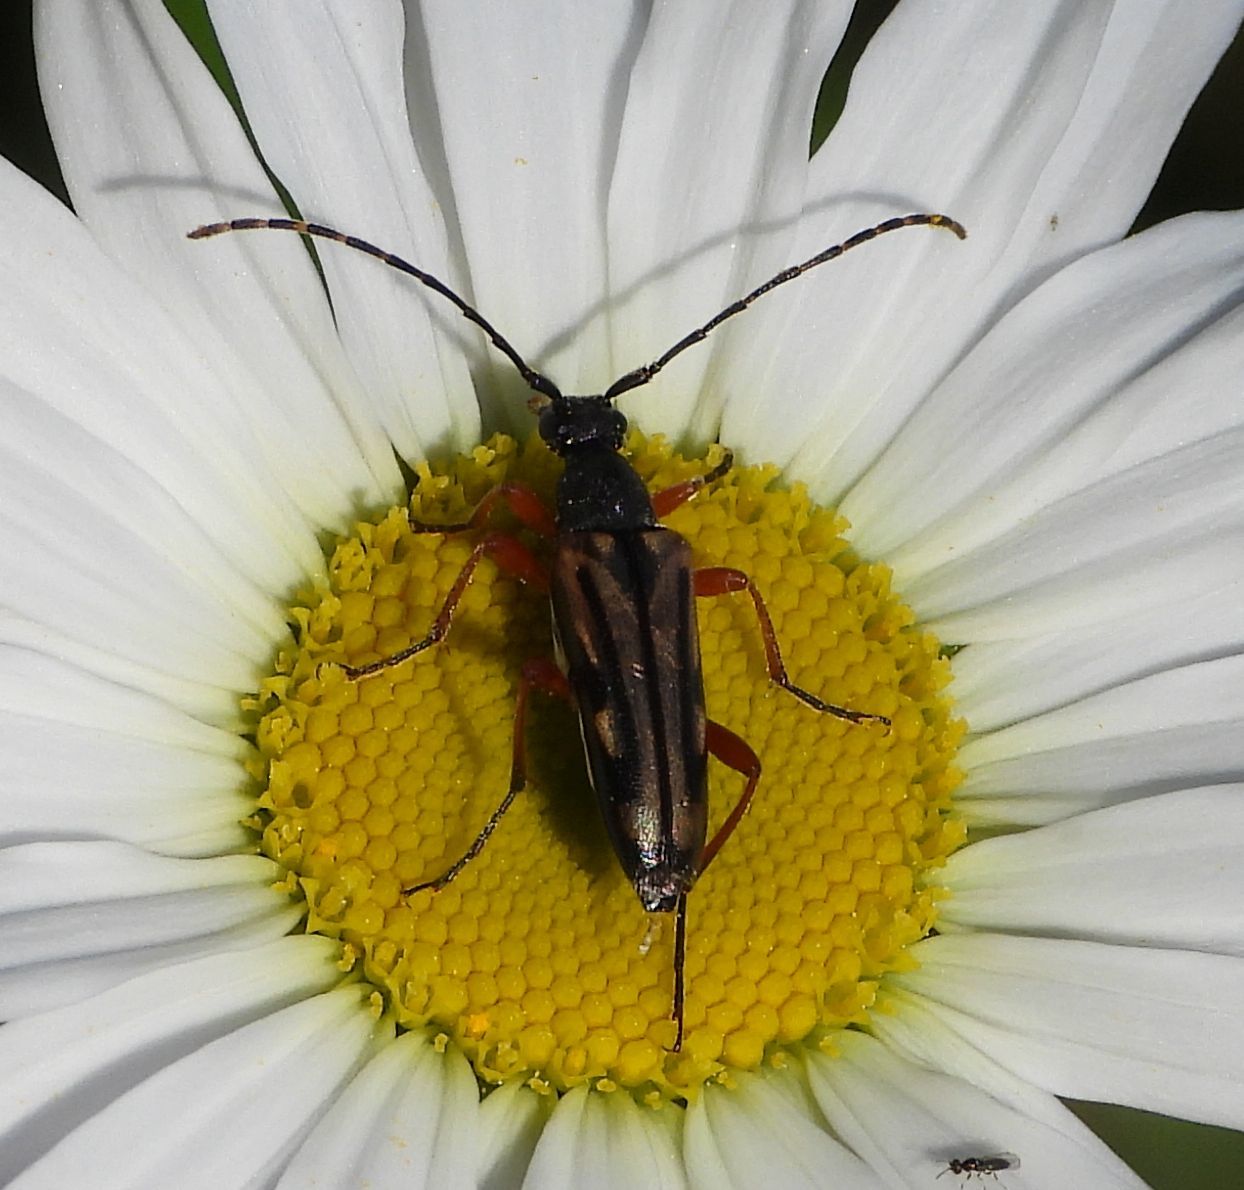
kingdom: Animalia
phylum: Arthropoda
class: Insecta
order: Coleoptera
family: Cerambycidae
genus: Analeptura
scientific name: Analeptura lineola
